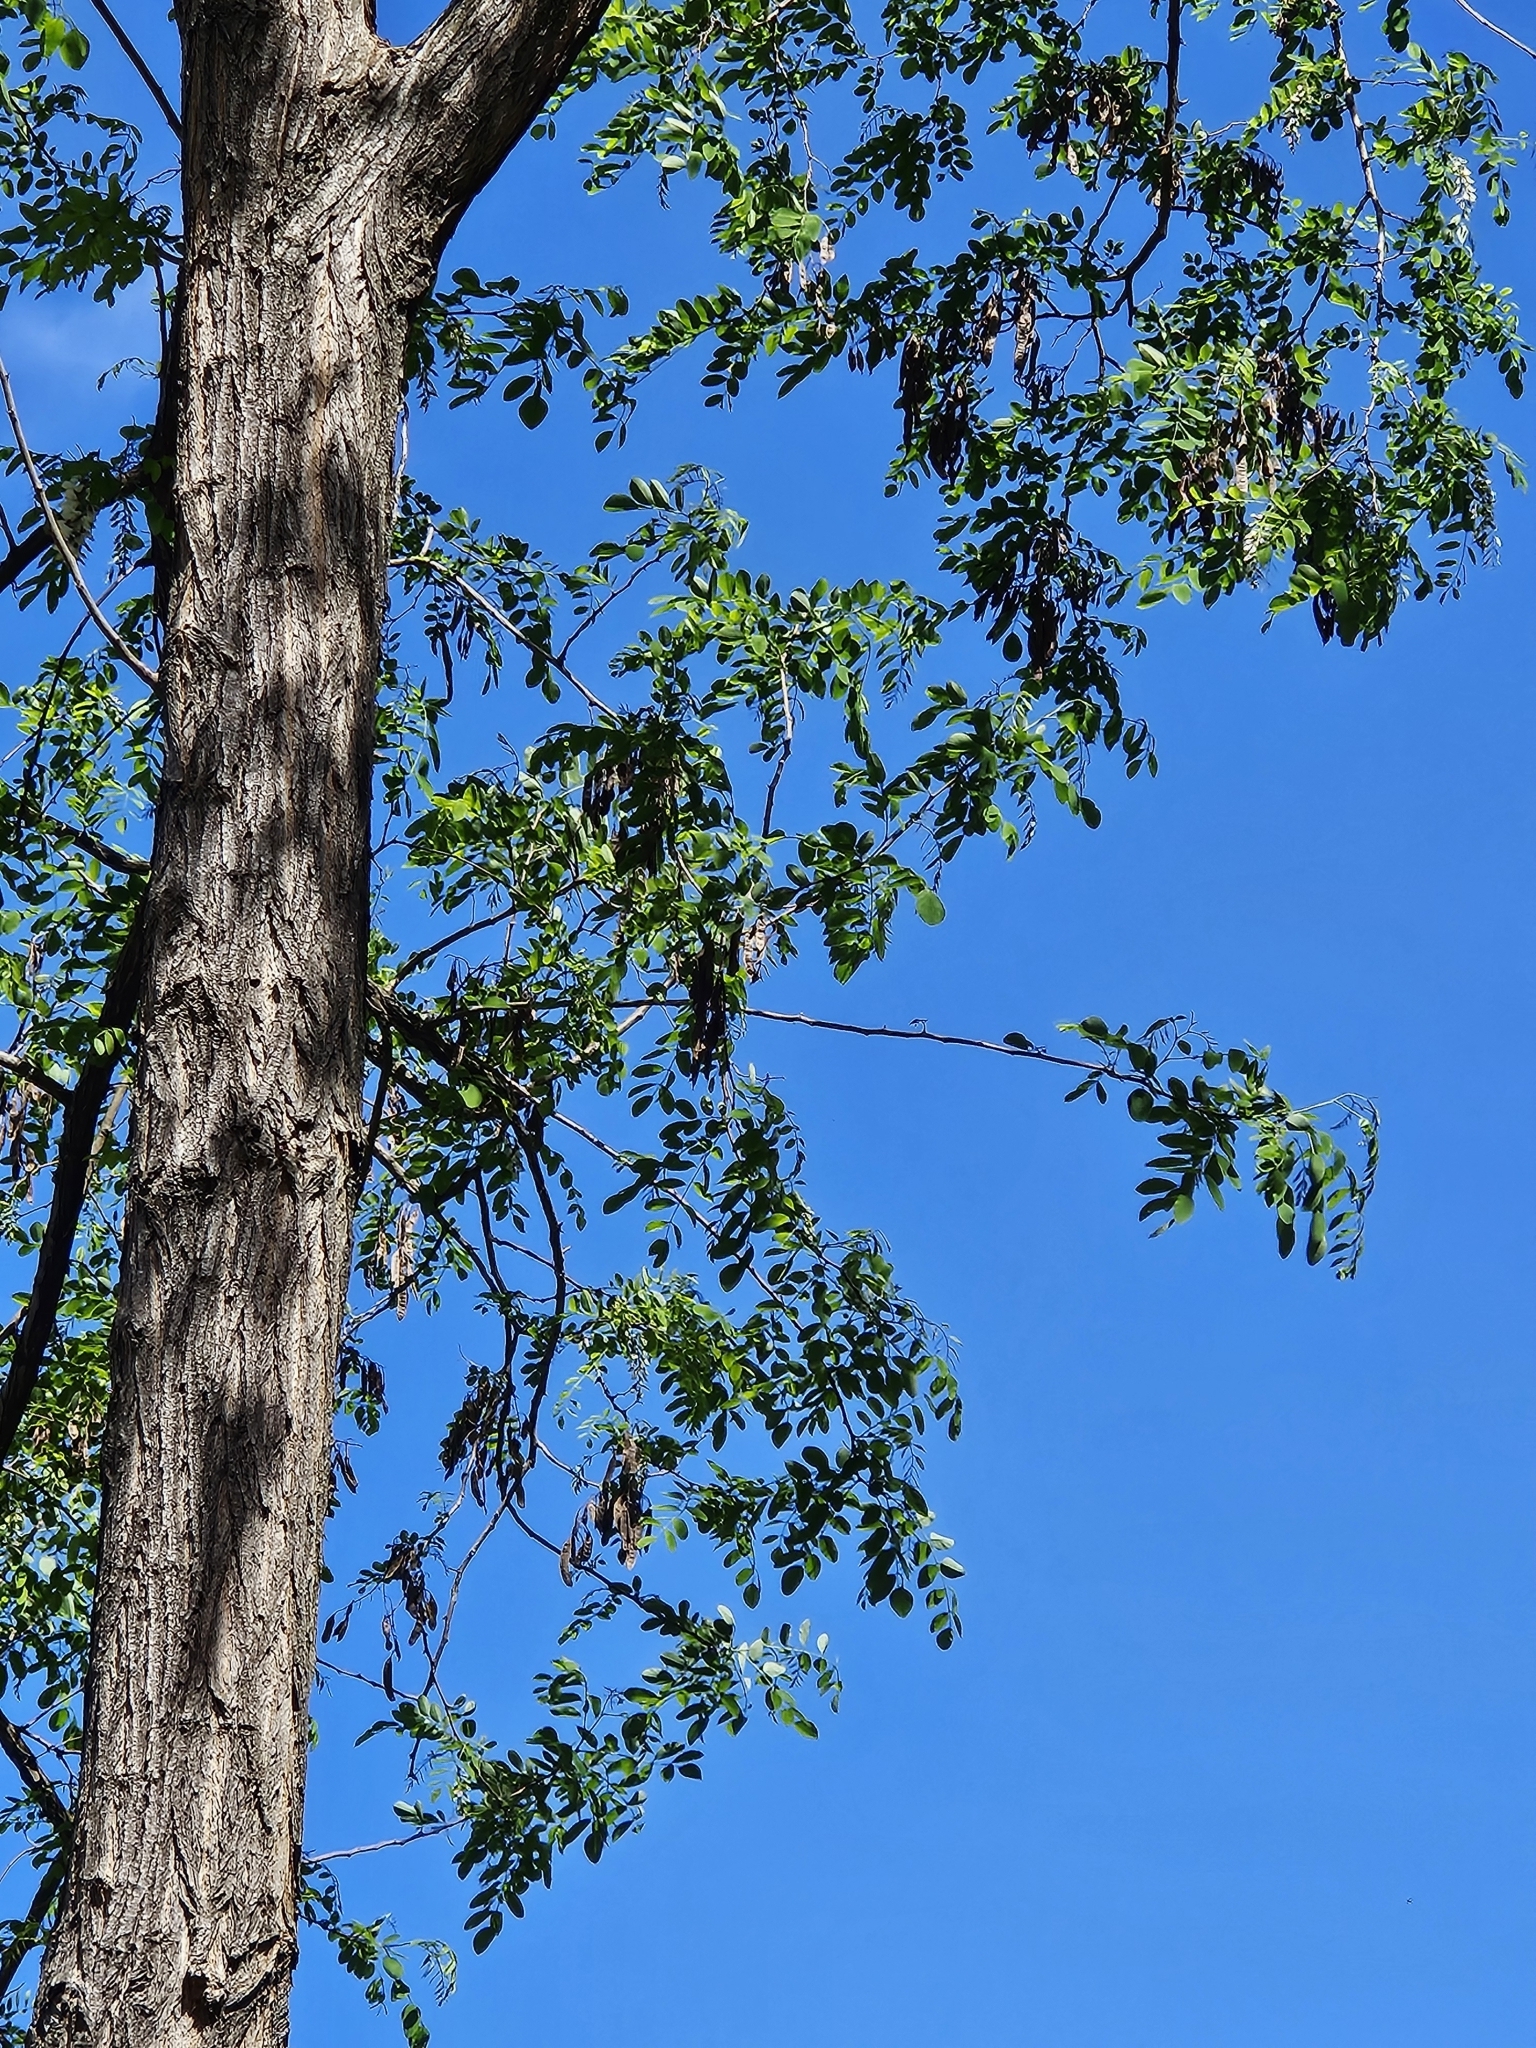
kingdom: Plantae
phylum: Tracheophyta
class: Magnoliopsida
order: Fabales
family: Fabaceae
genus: Robinia
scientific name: Robinia pseudoacacia
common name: Black locust
